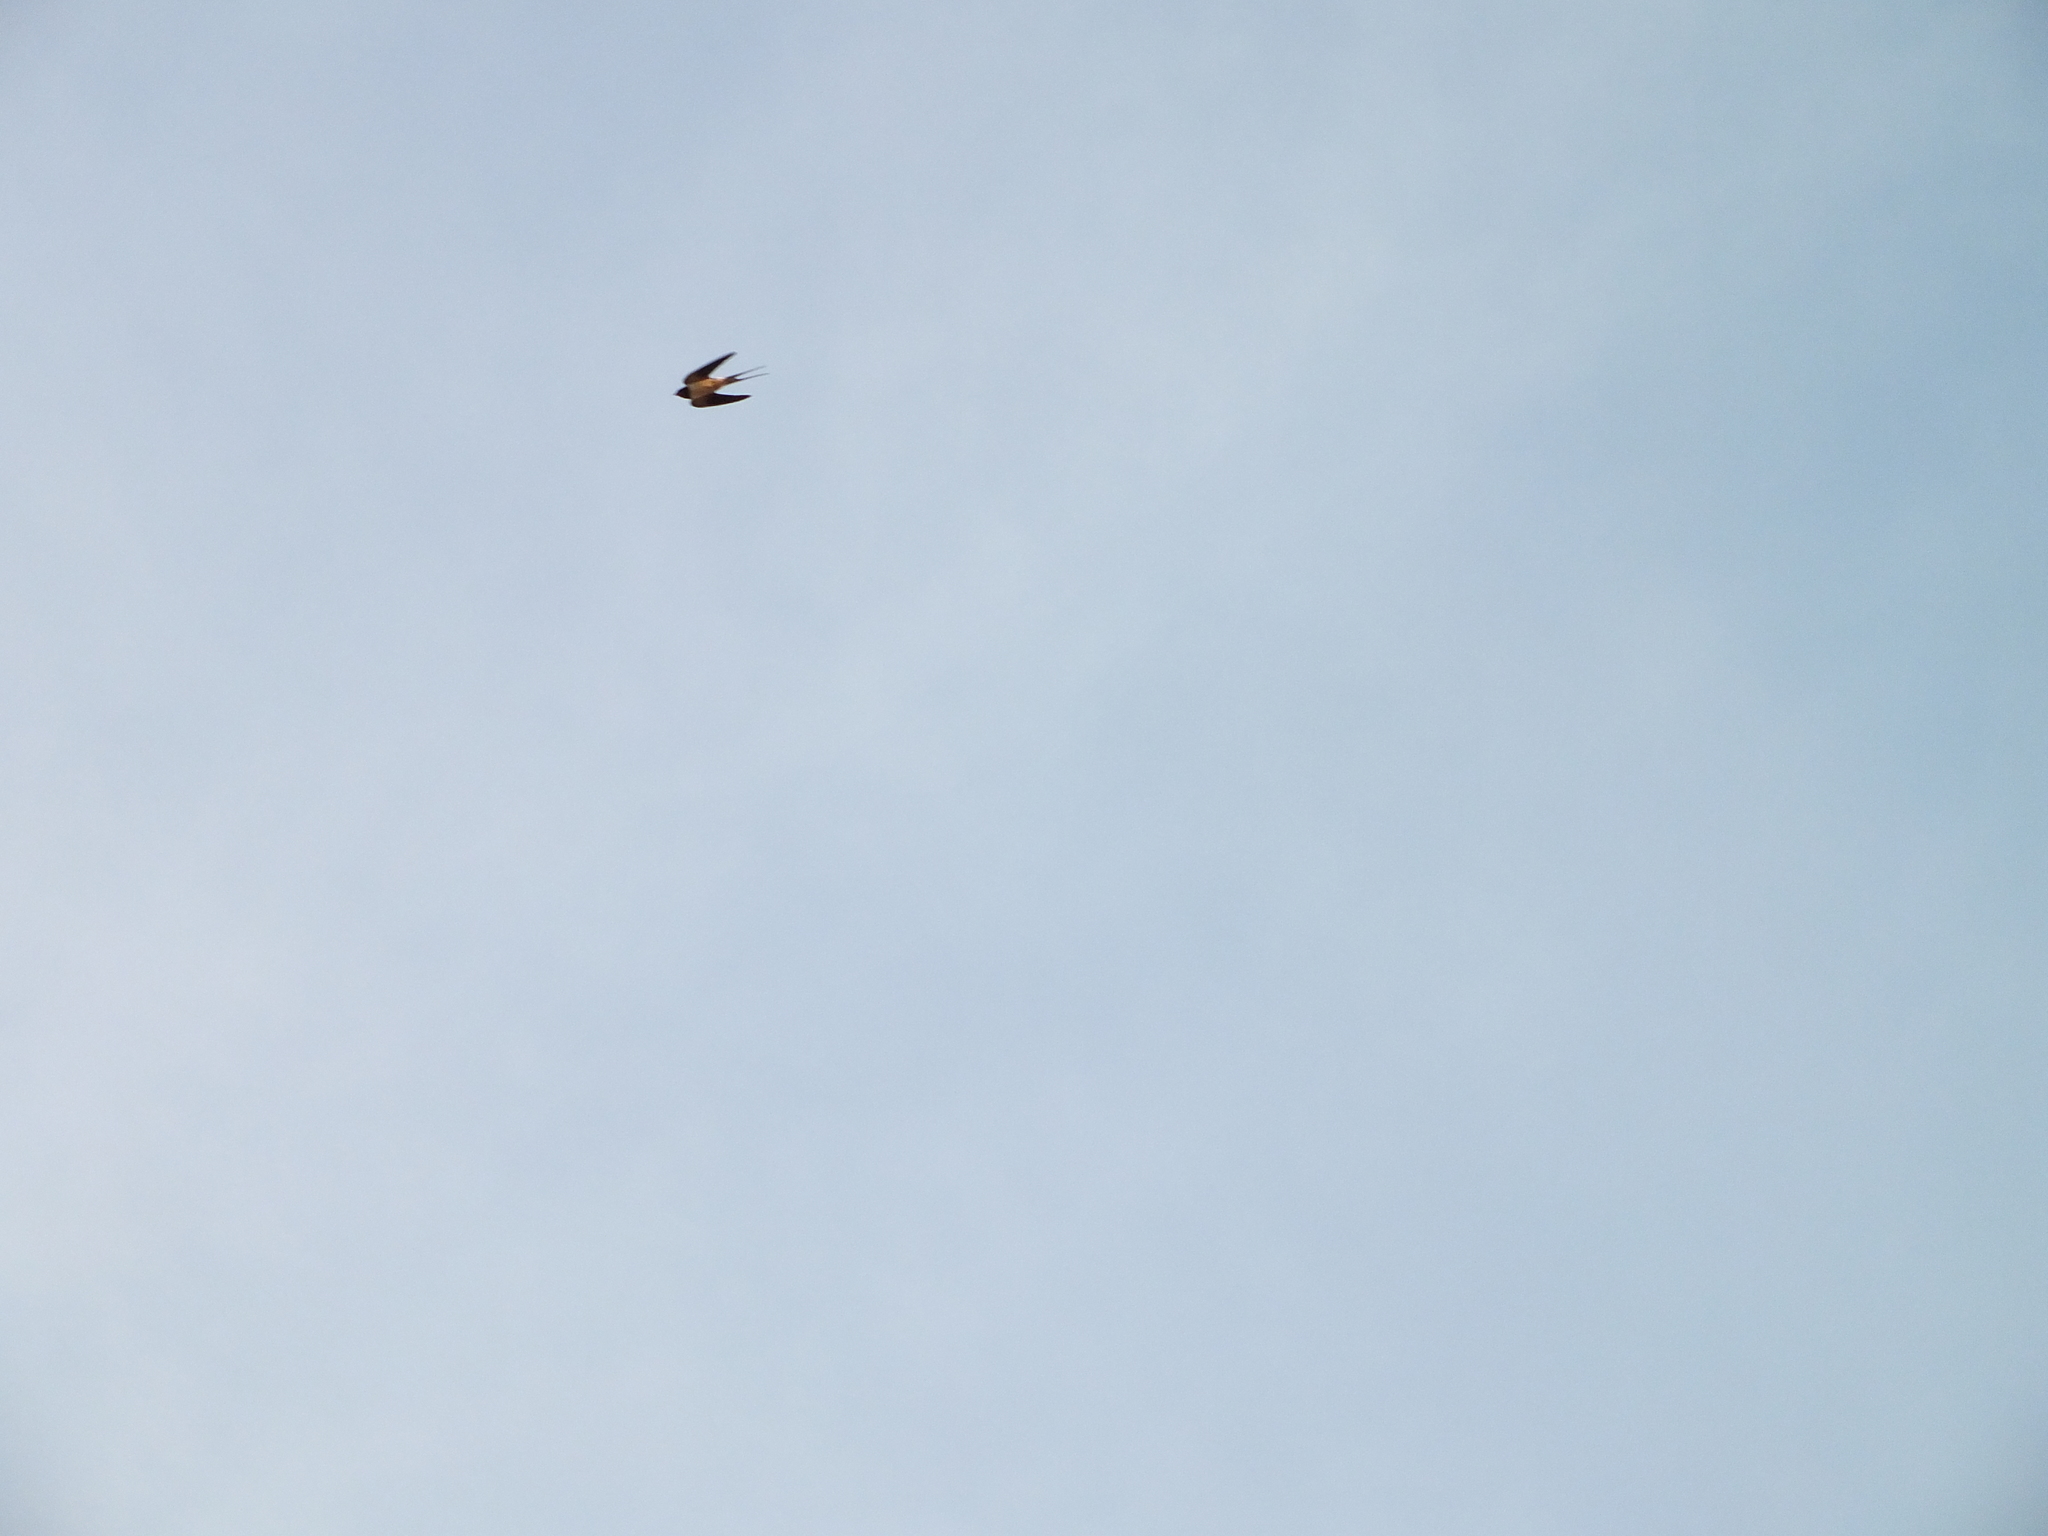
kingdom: Animalia
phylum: Chordata
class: Aves
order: Passeriformes
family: Hirundinidae
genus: Hirundo
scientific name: Hirundo rustica
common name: Barn swallow
